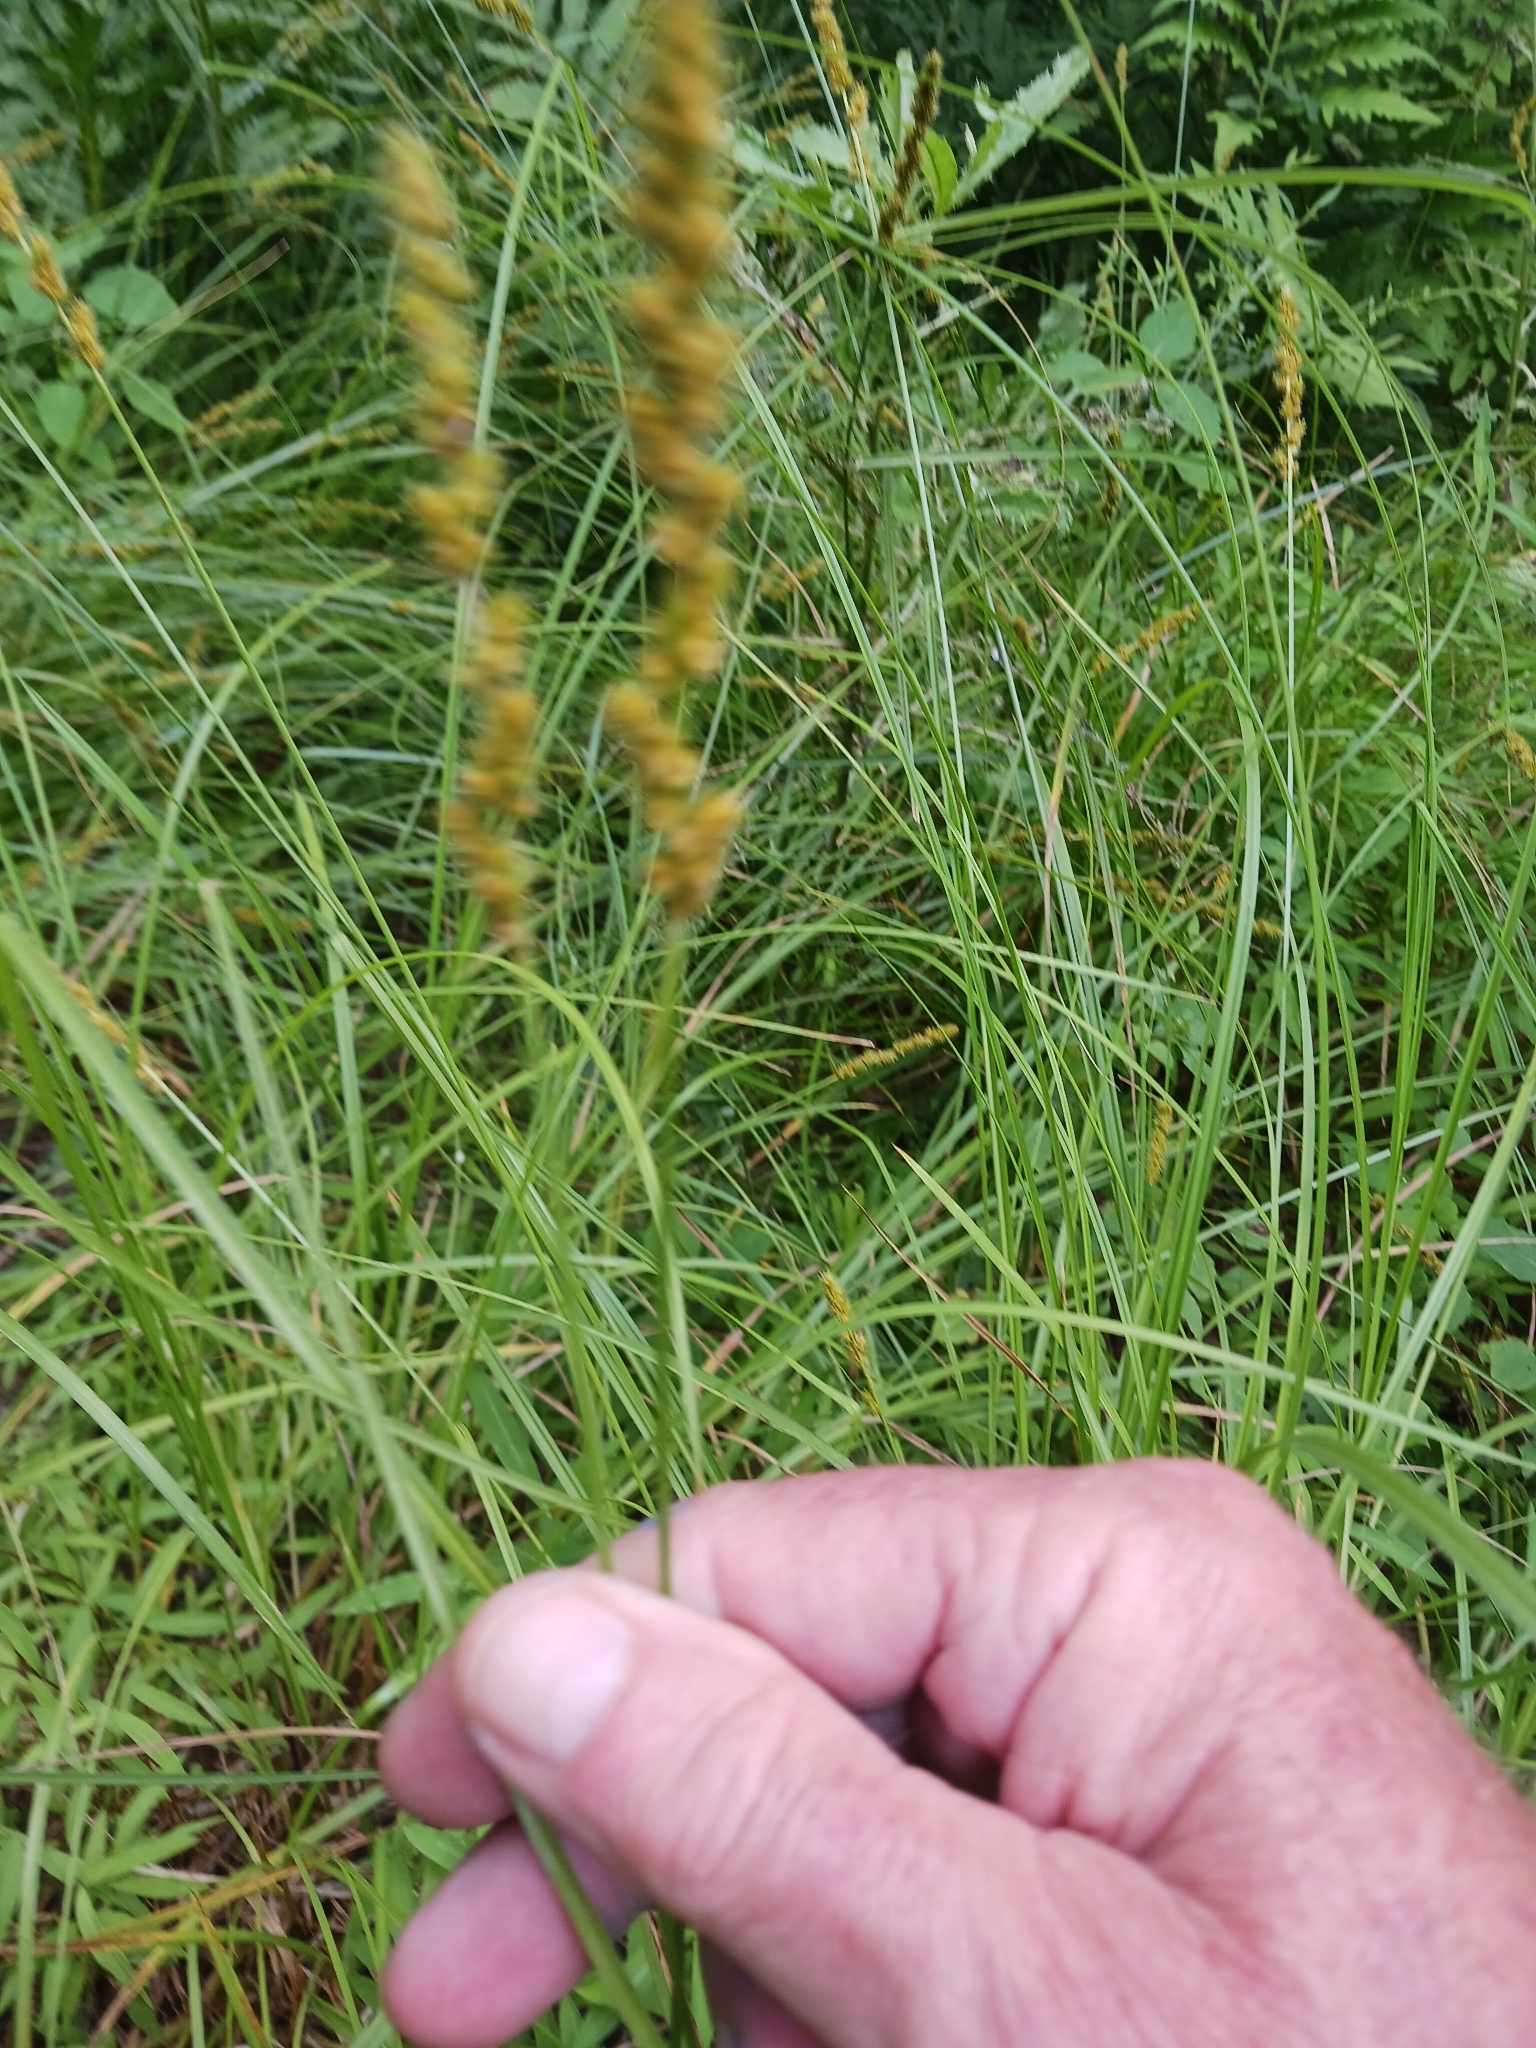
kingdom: Plantae
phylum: Tracheophyta
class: Liliopsida
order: Poales
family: Cyperaceae
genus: Carex
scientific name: Carex vulpinoidea
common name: American fox-sedge
